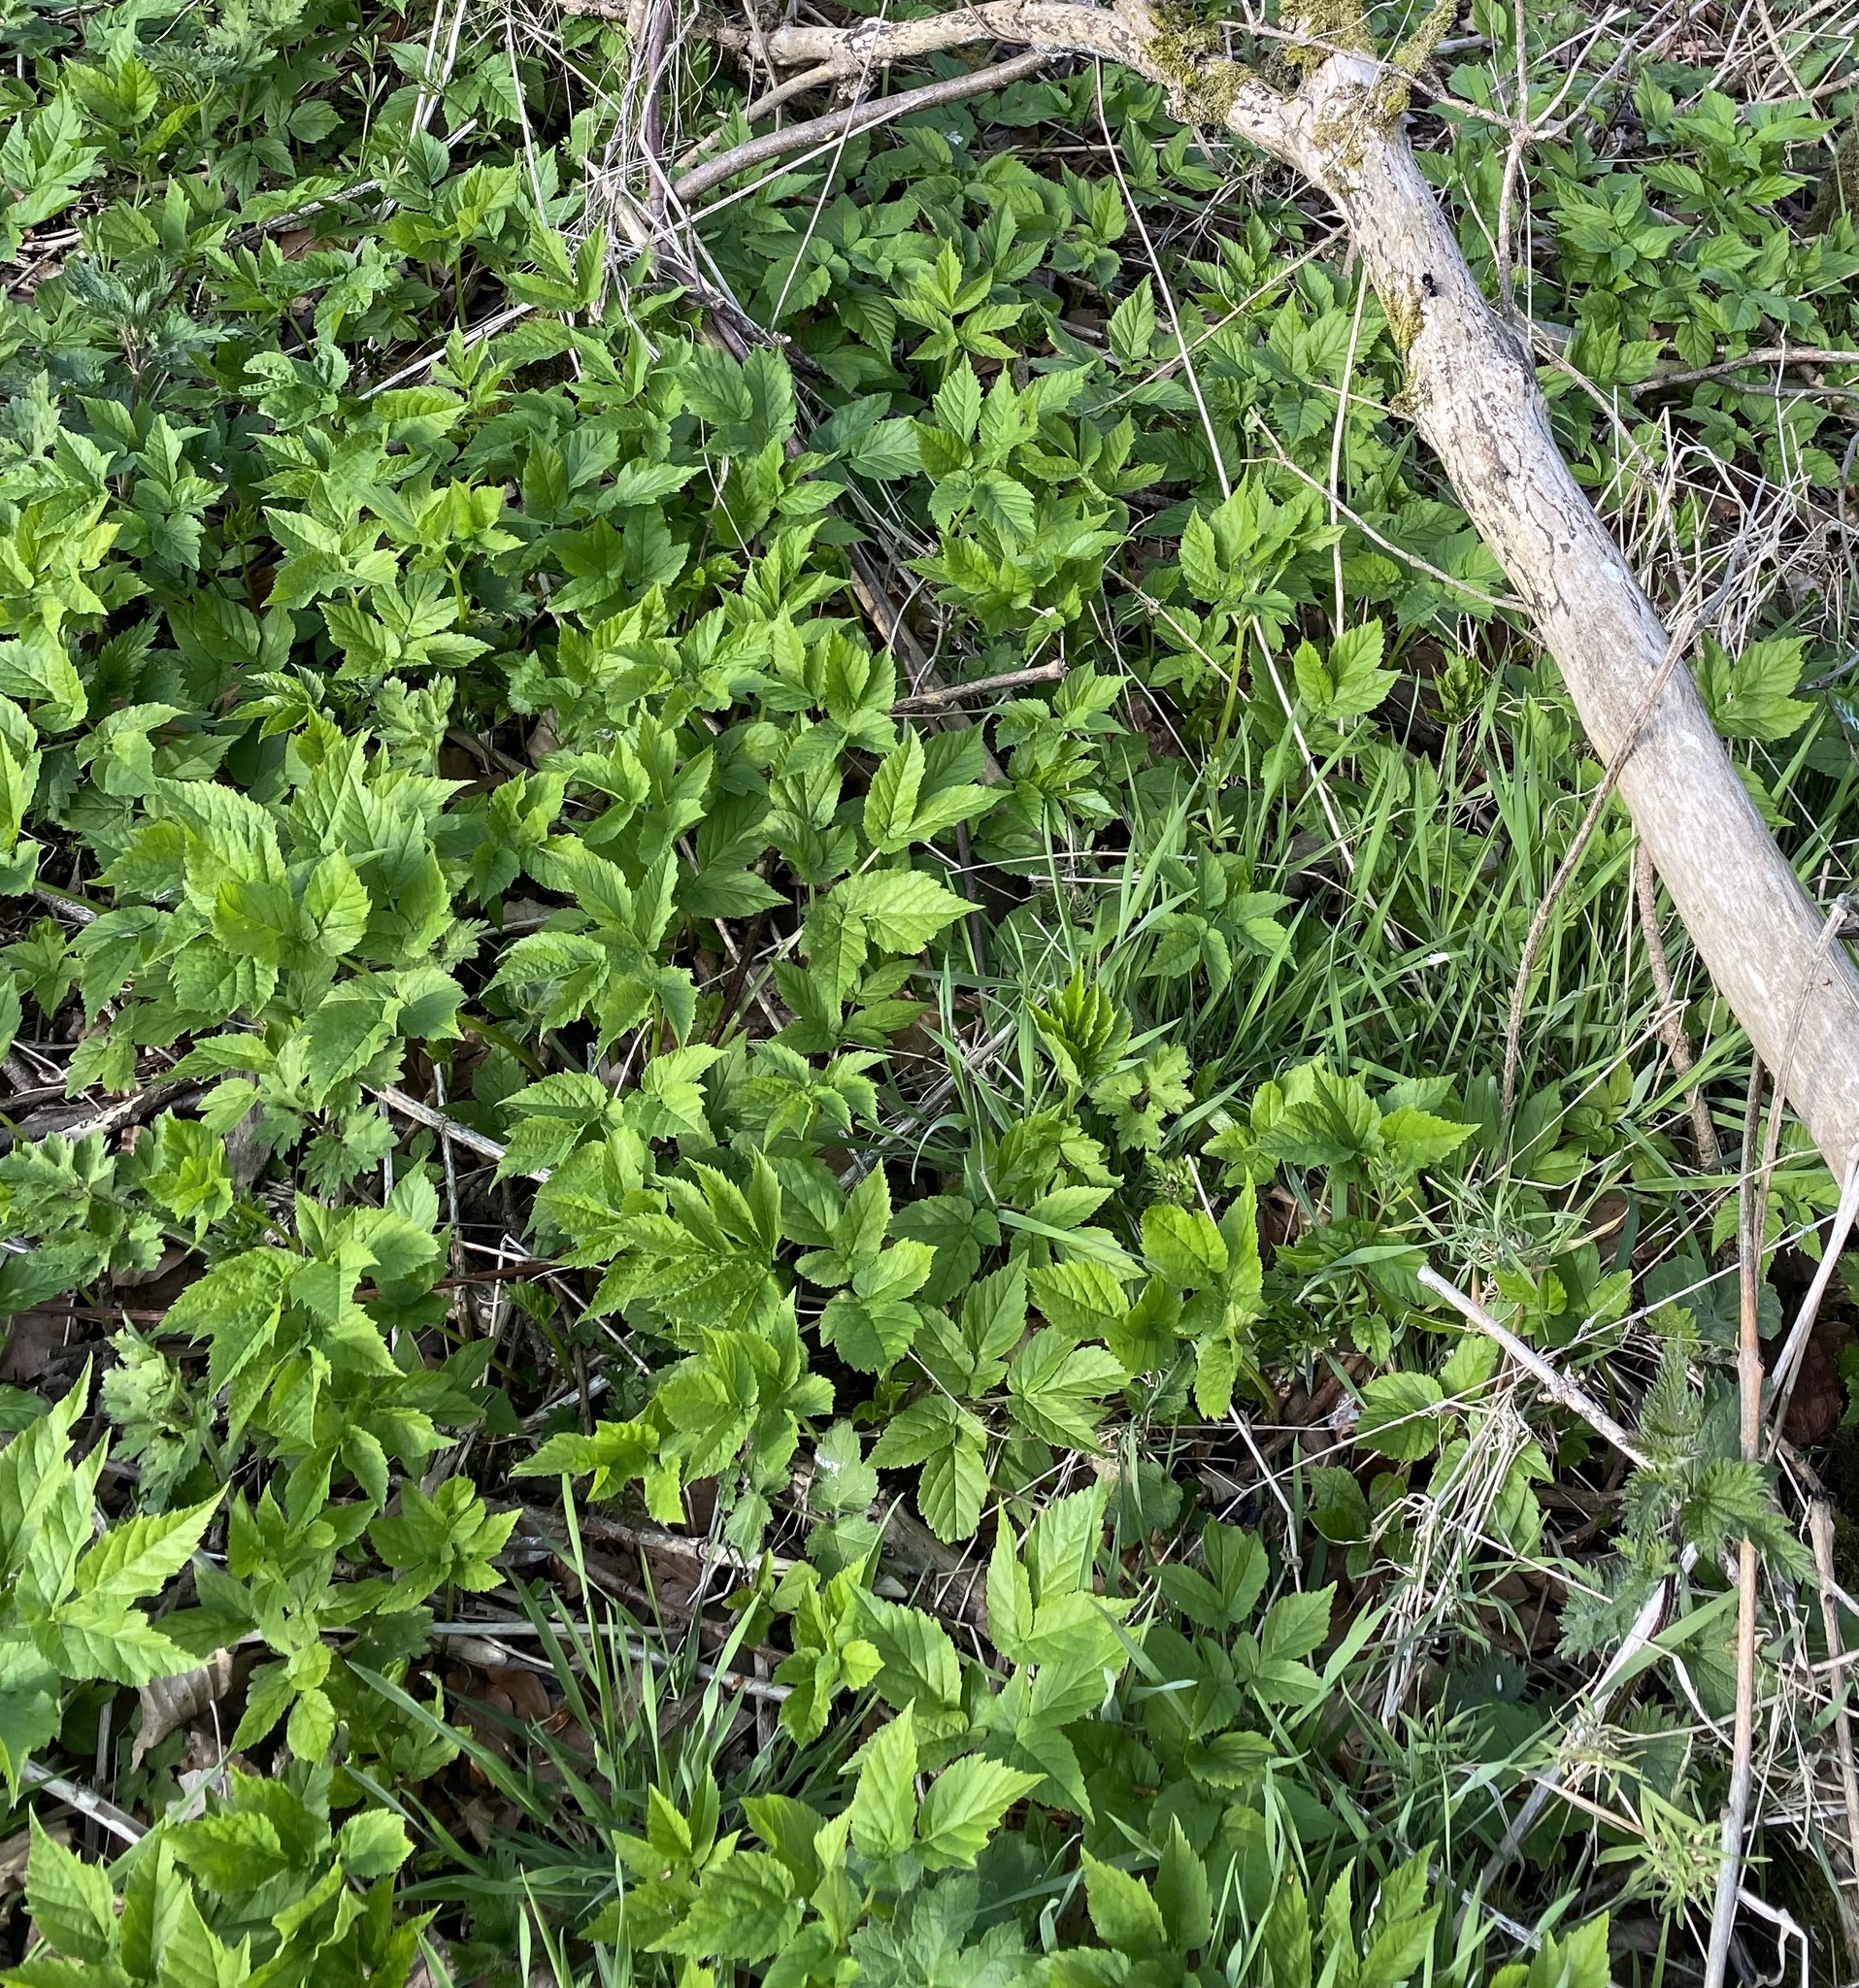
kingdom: Plantae
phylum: Tracheophyta
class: Magnoliopsida
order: Apiales
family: Apiaceae
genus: Aegopodium
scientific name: Aegopodium podagraria
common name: Ground-elder
